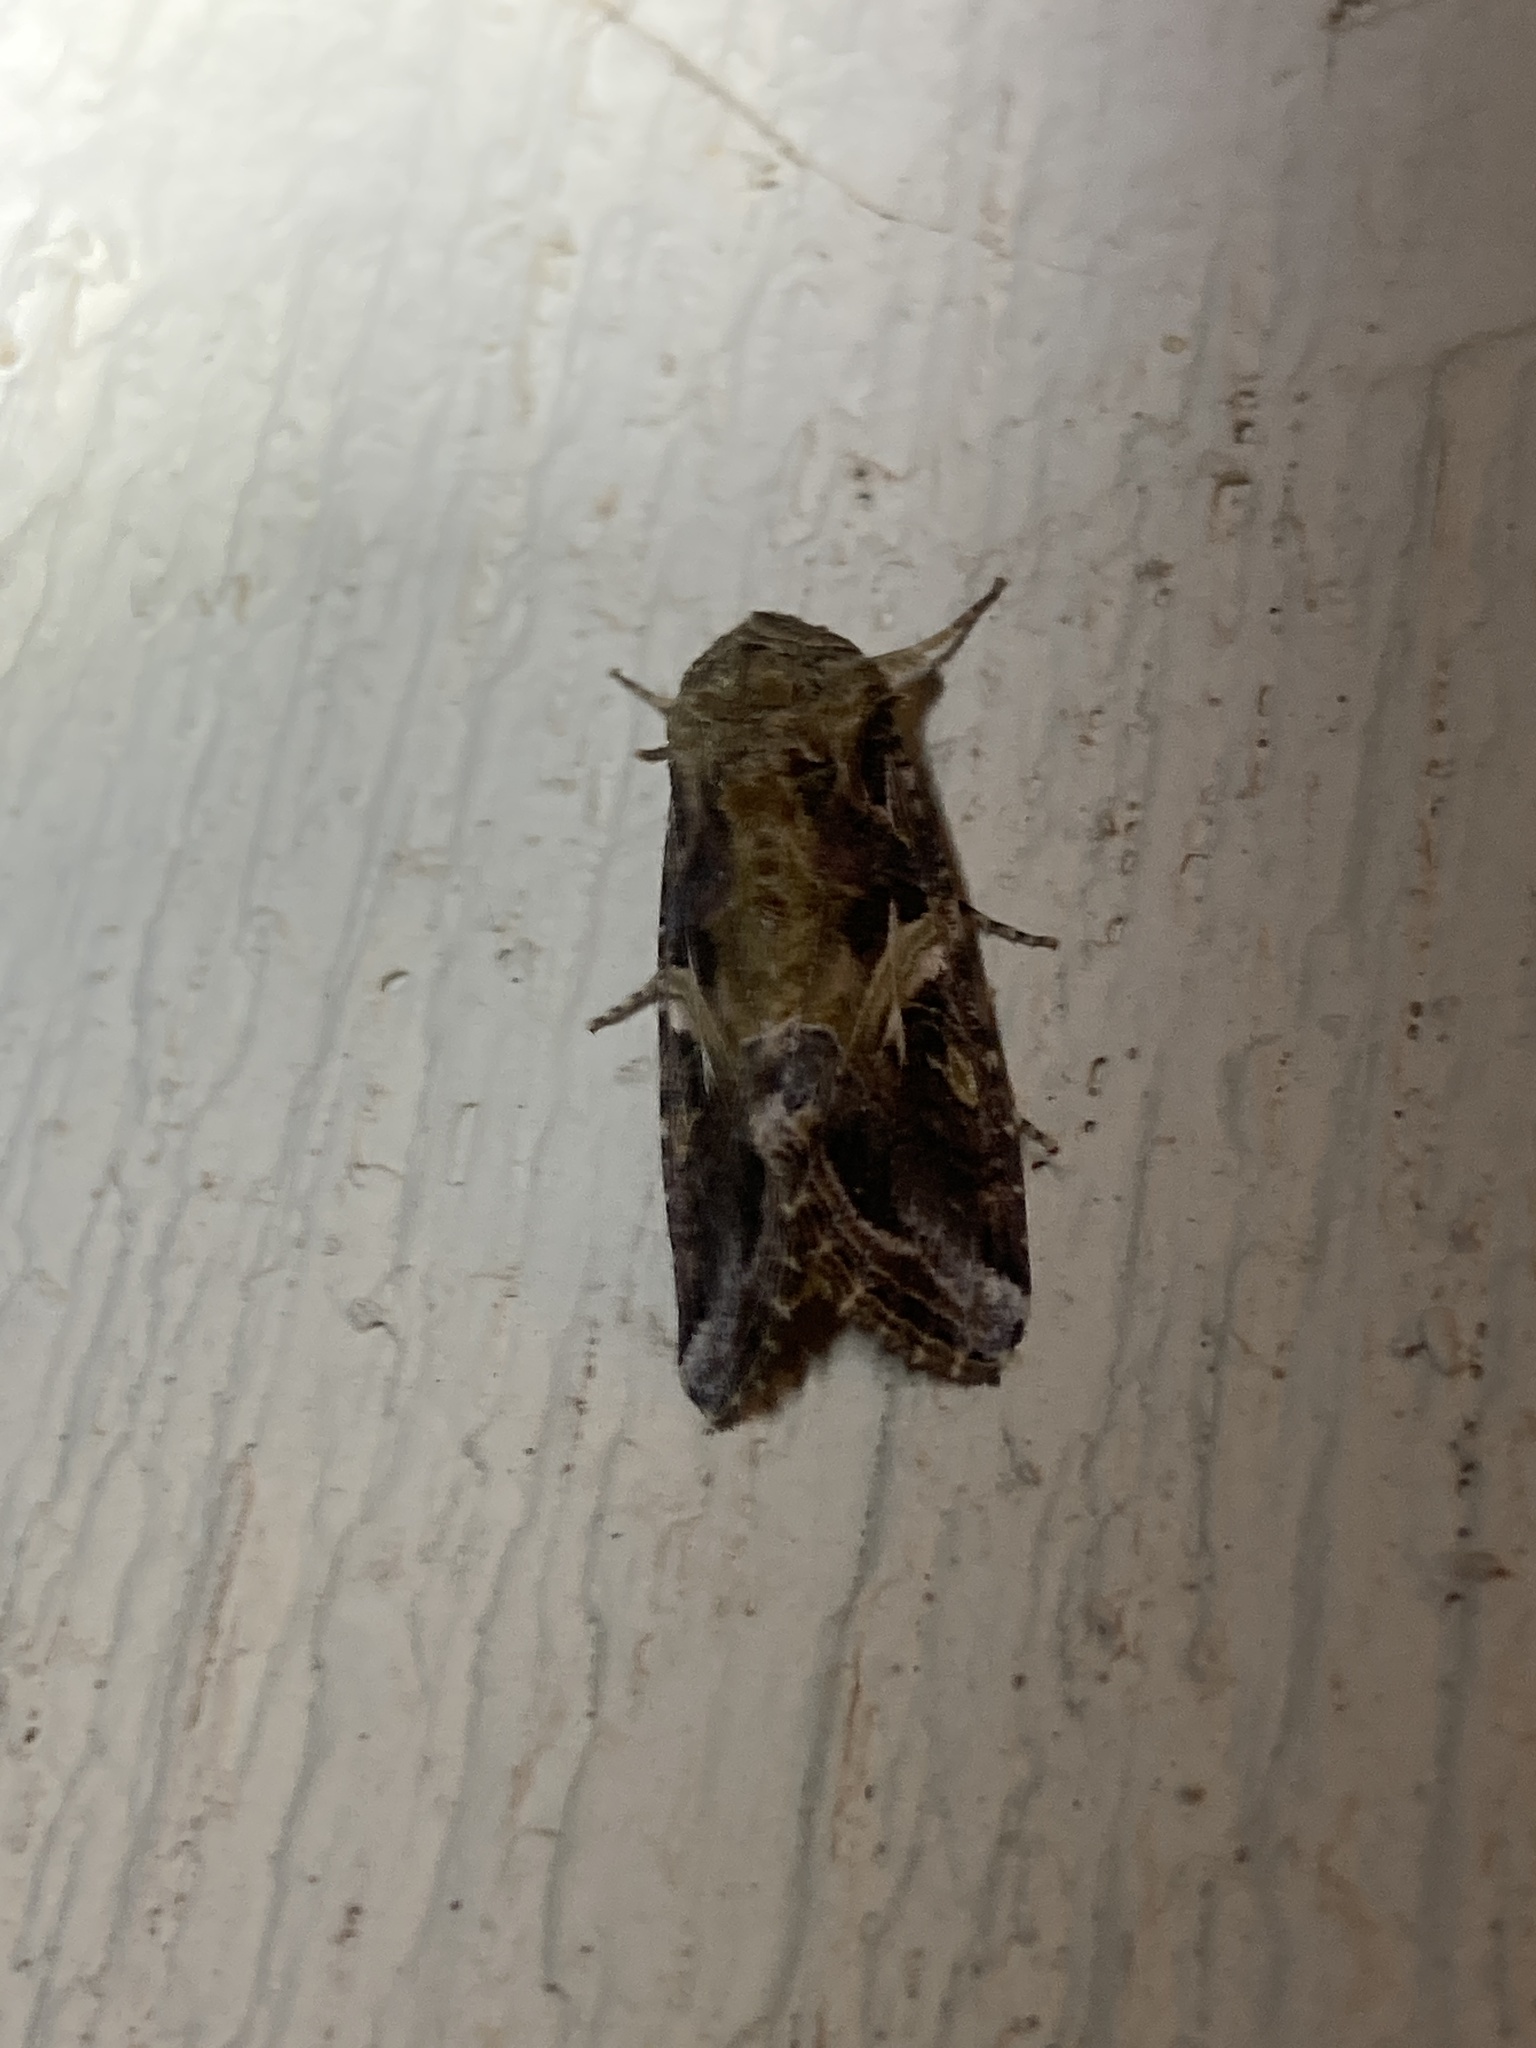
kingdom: Animalia
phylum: Arthropoda
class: Insecta
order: Lepidoptera
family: Noctuidae
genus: Spodoptera
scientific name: Spodoptera ornithogalli
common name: Yellow-striped armyworm
